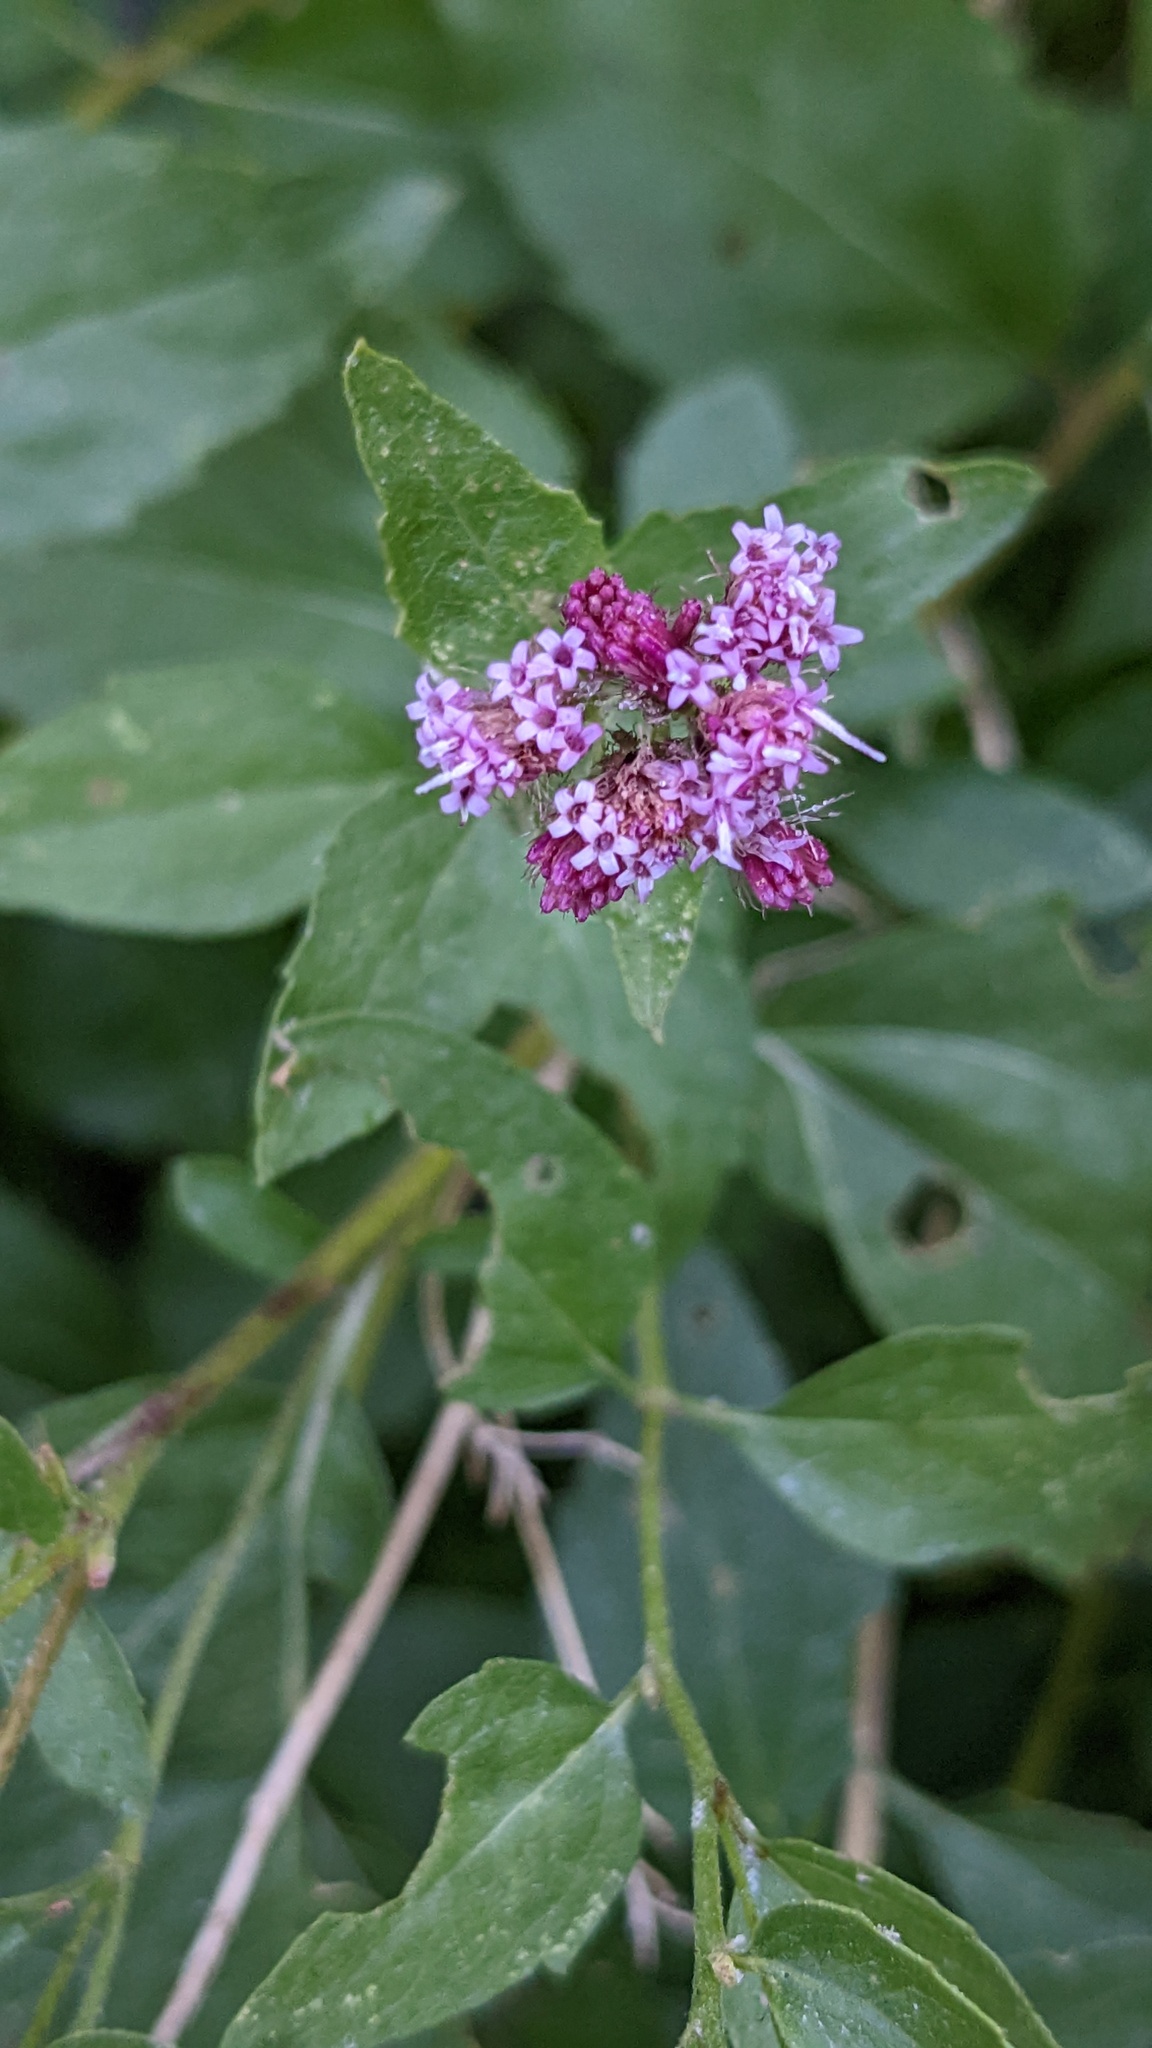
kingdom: Plantae
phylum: Tracheophyta
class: Magnoliopsida
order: Asterales
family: Asteraceae
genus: Ageratina
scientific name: Ageratina occidentalis
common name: Western snakeroot
